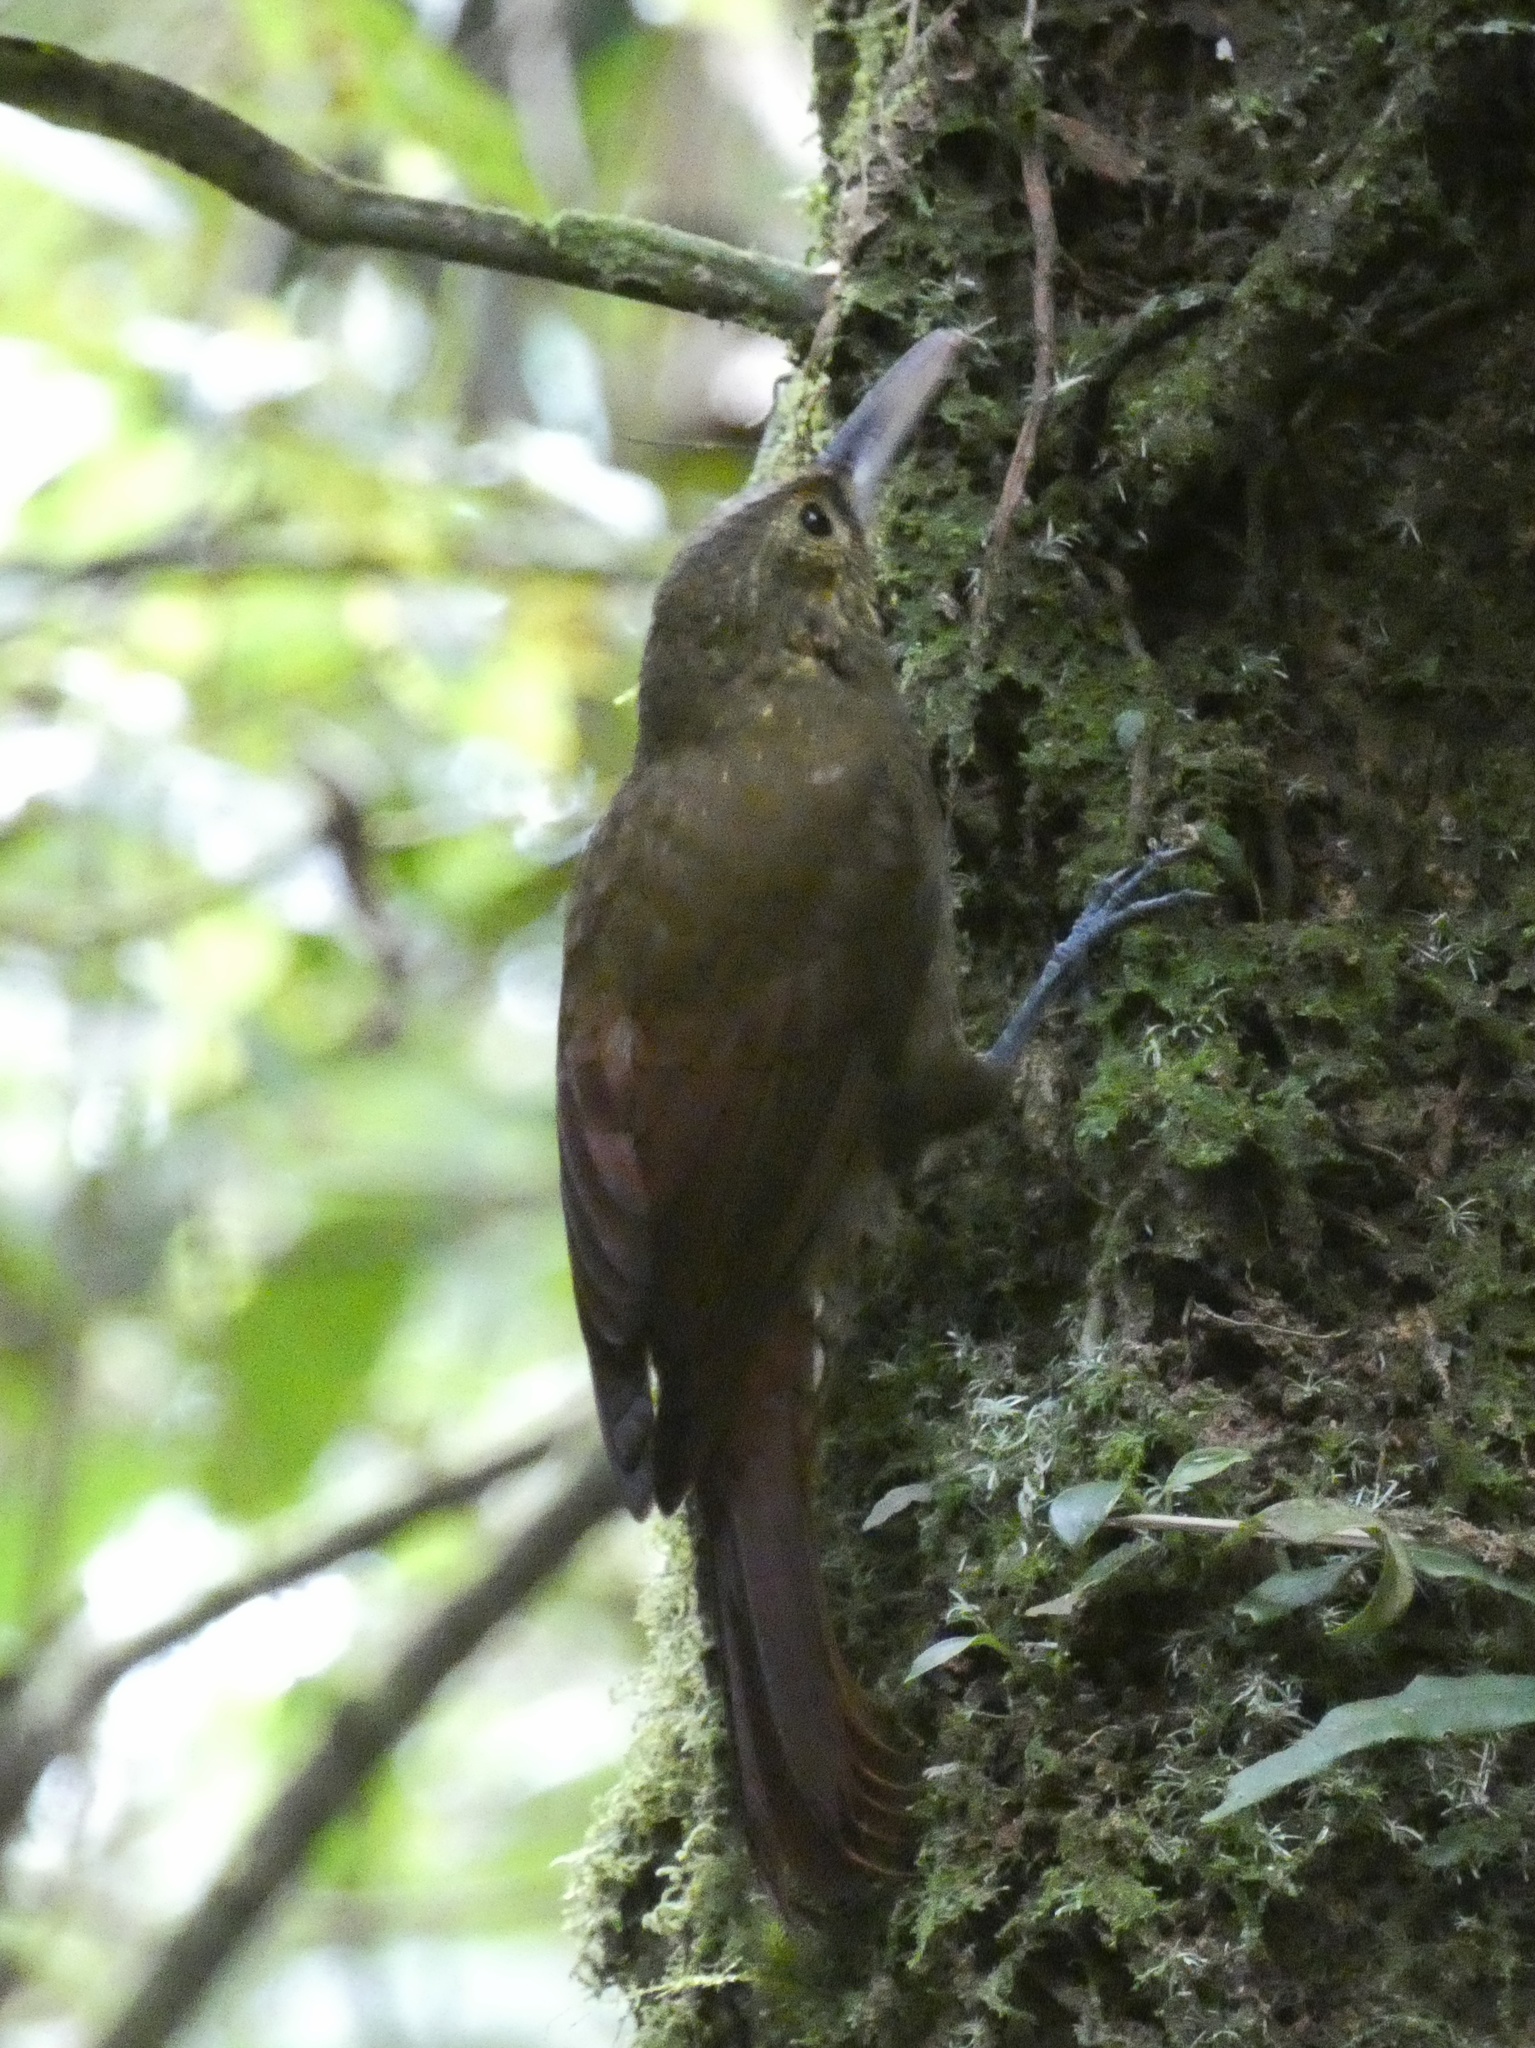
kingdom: Animalia
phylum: Chordata
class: Aves
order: Passeriformes
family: Furnariidae
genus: Xiphorhynchus
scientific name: Xiphorhynchus erythropygius
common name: Spotted woodcreeper
